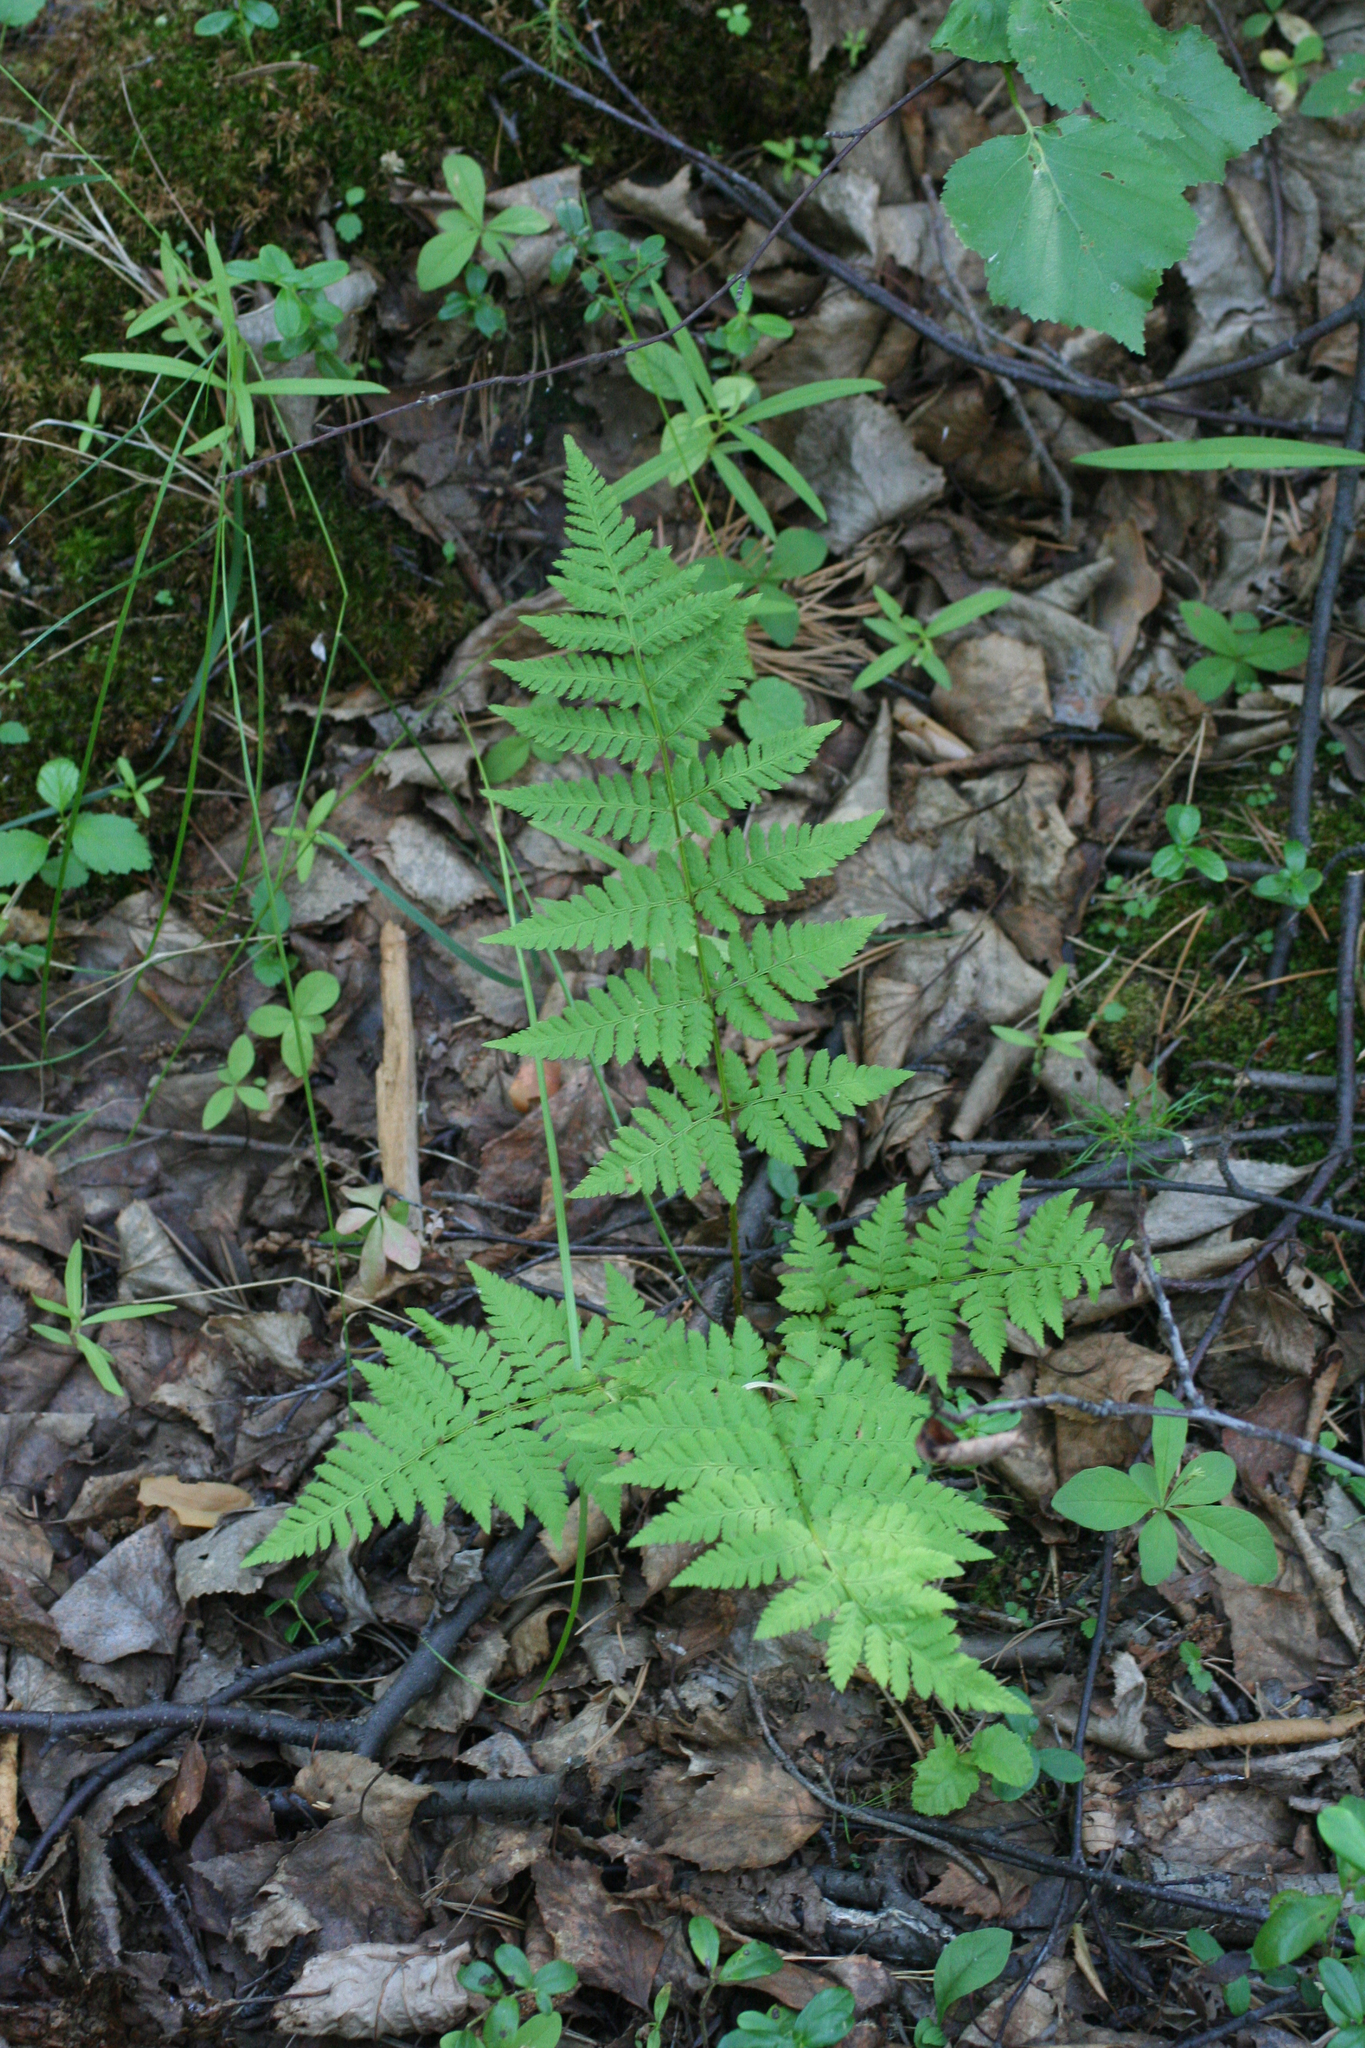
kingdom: Plantae
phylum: Tracheophyta
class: Polypodiopsida
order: Polypodiales
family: Dryopteridaceae
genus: Dryopteris
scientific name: Dryopteris carthusiana
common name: Narrow buckler-fern
